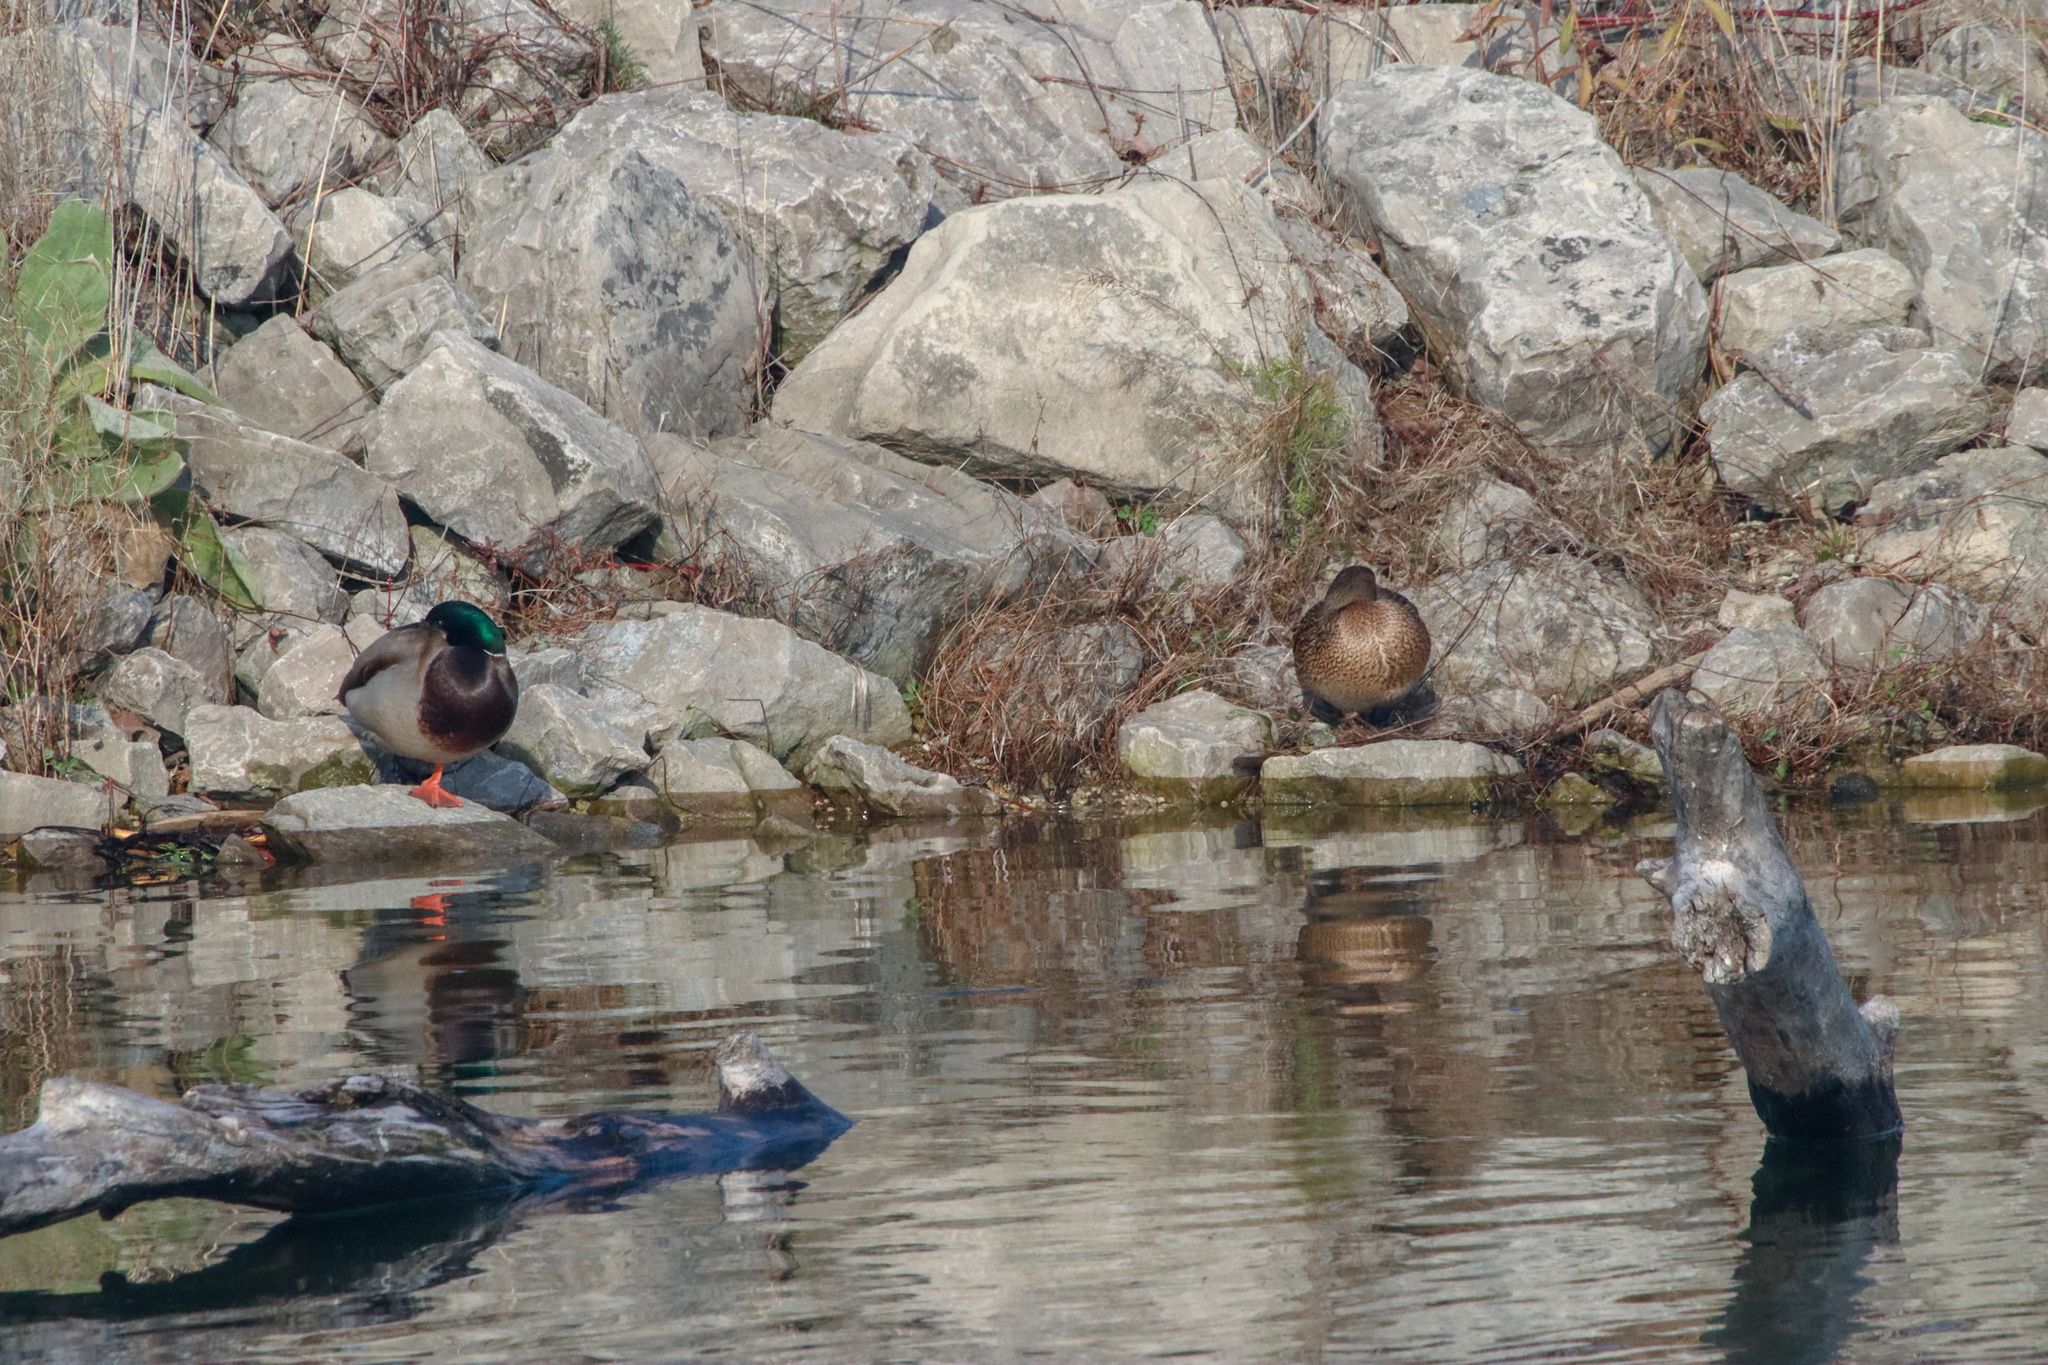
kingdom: Animalia
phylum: Chordata
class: Aves
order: Anseriformes
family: Anatidae
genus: Anas
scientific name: Anas platyrhynchos
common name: Mallard
